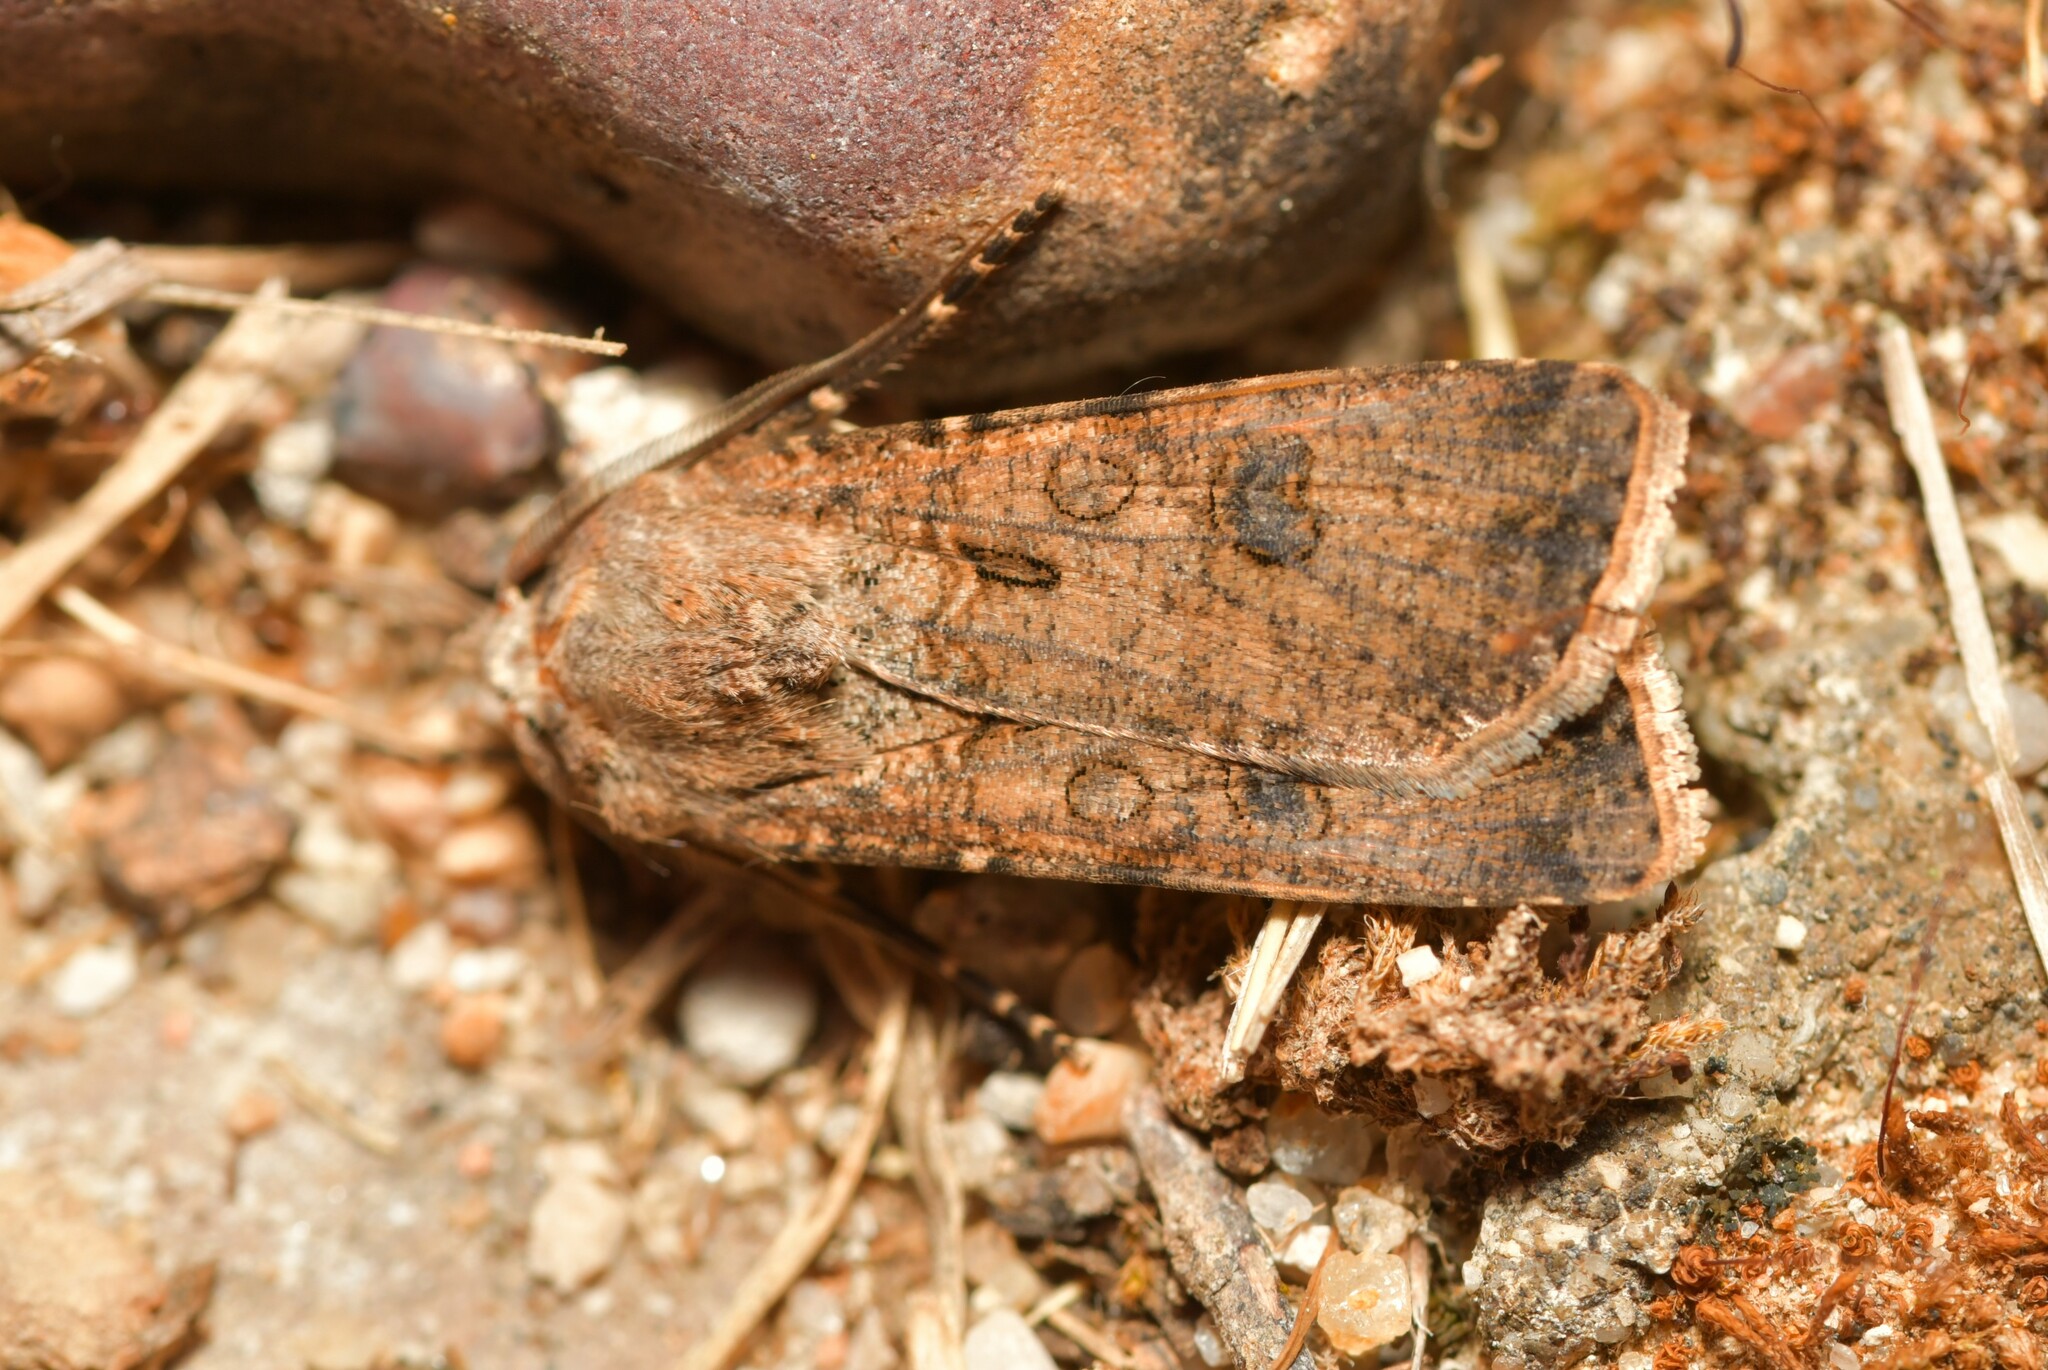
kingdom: Animalia
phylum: Arthropoda
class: Insecta
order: Lepidoptera
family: Noctuidae
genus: Agrotis
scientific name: Agrotis segetum
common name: Turnip moth
